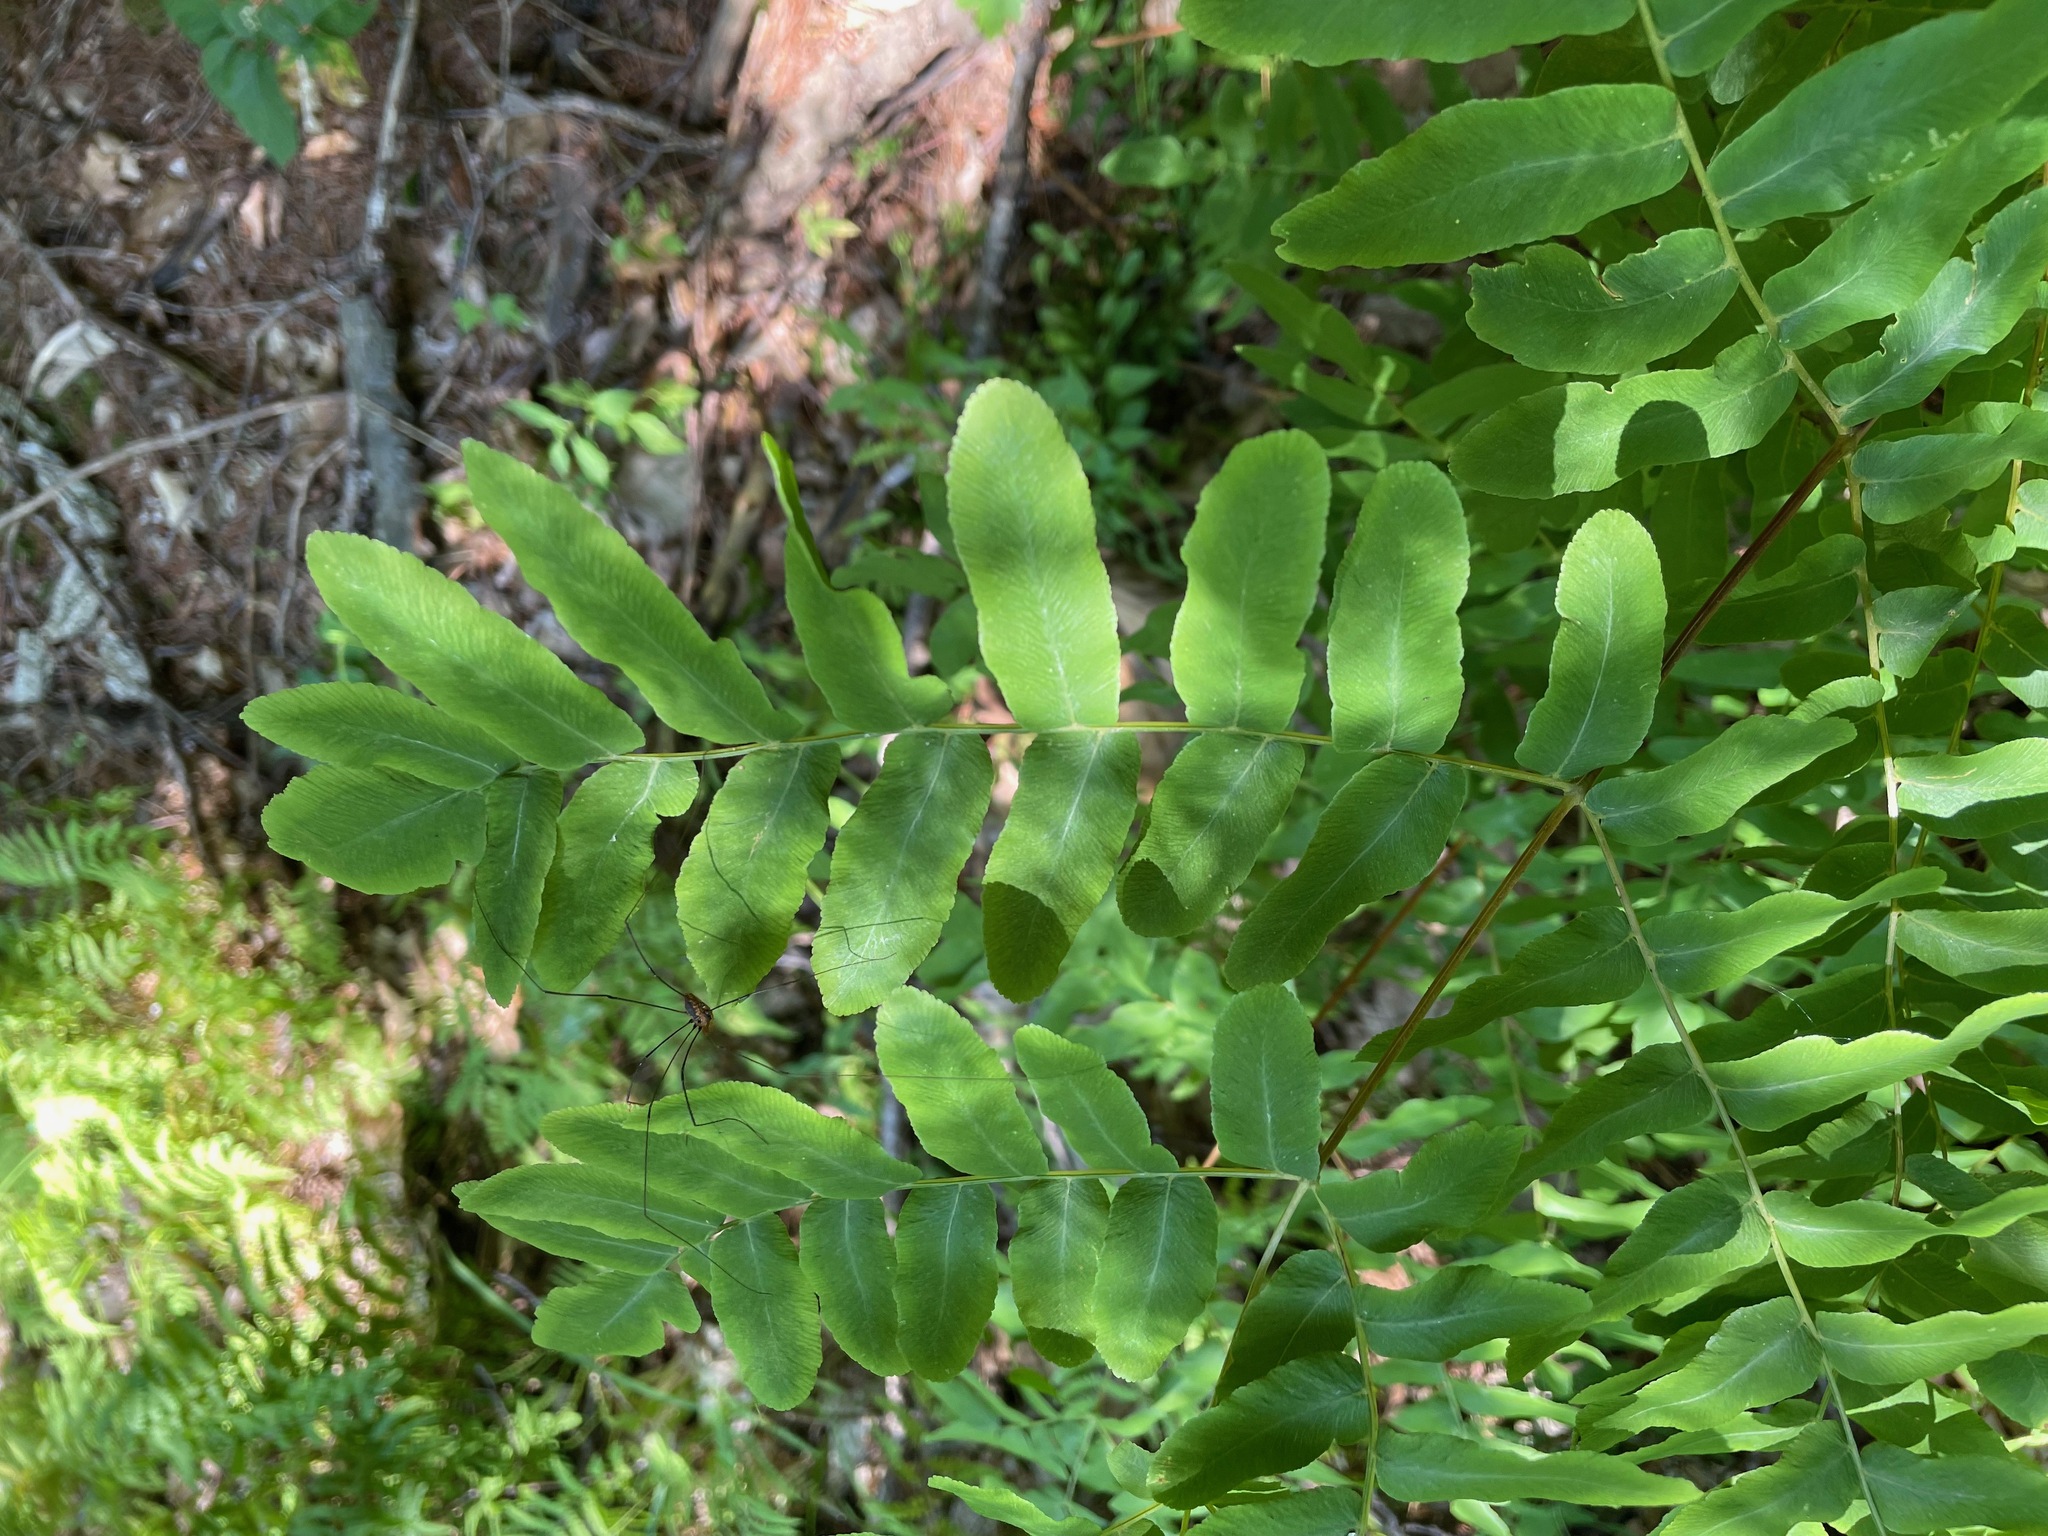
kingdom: Plantae
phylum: Tracheophyta
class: Polypodiopsida
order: Osmundales
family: Osmundaceae
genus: Osmunda
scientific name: Osmunda spectabilis
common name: American royal fern
